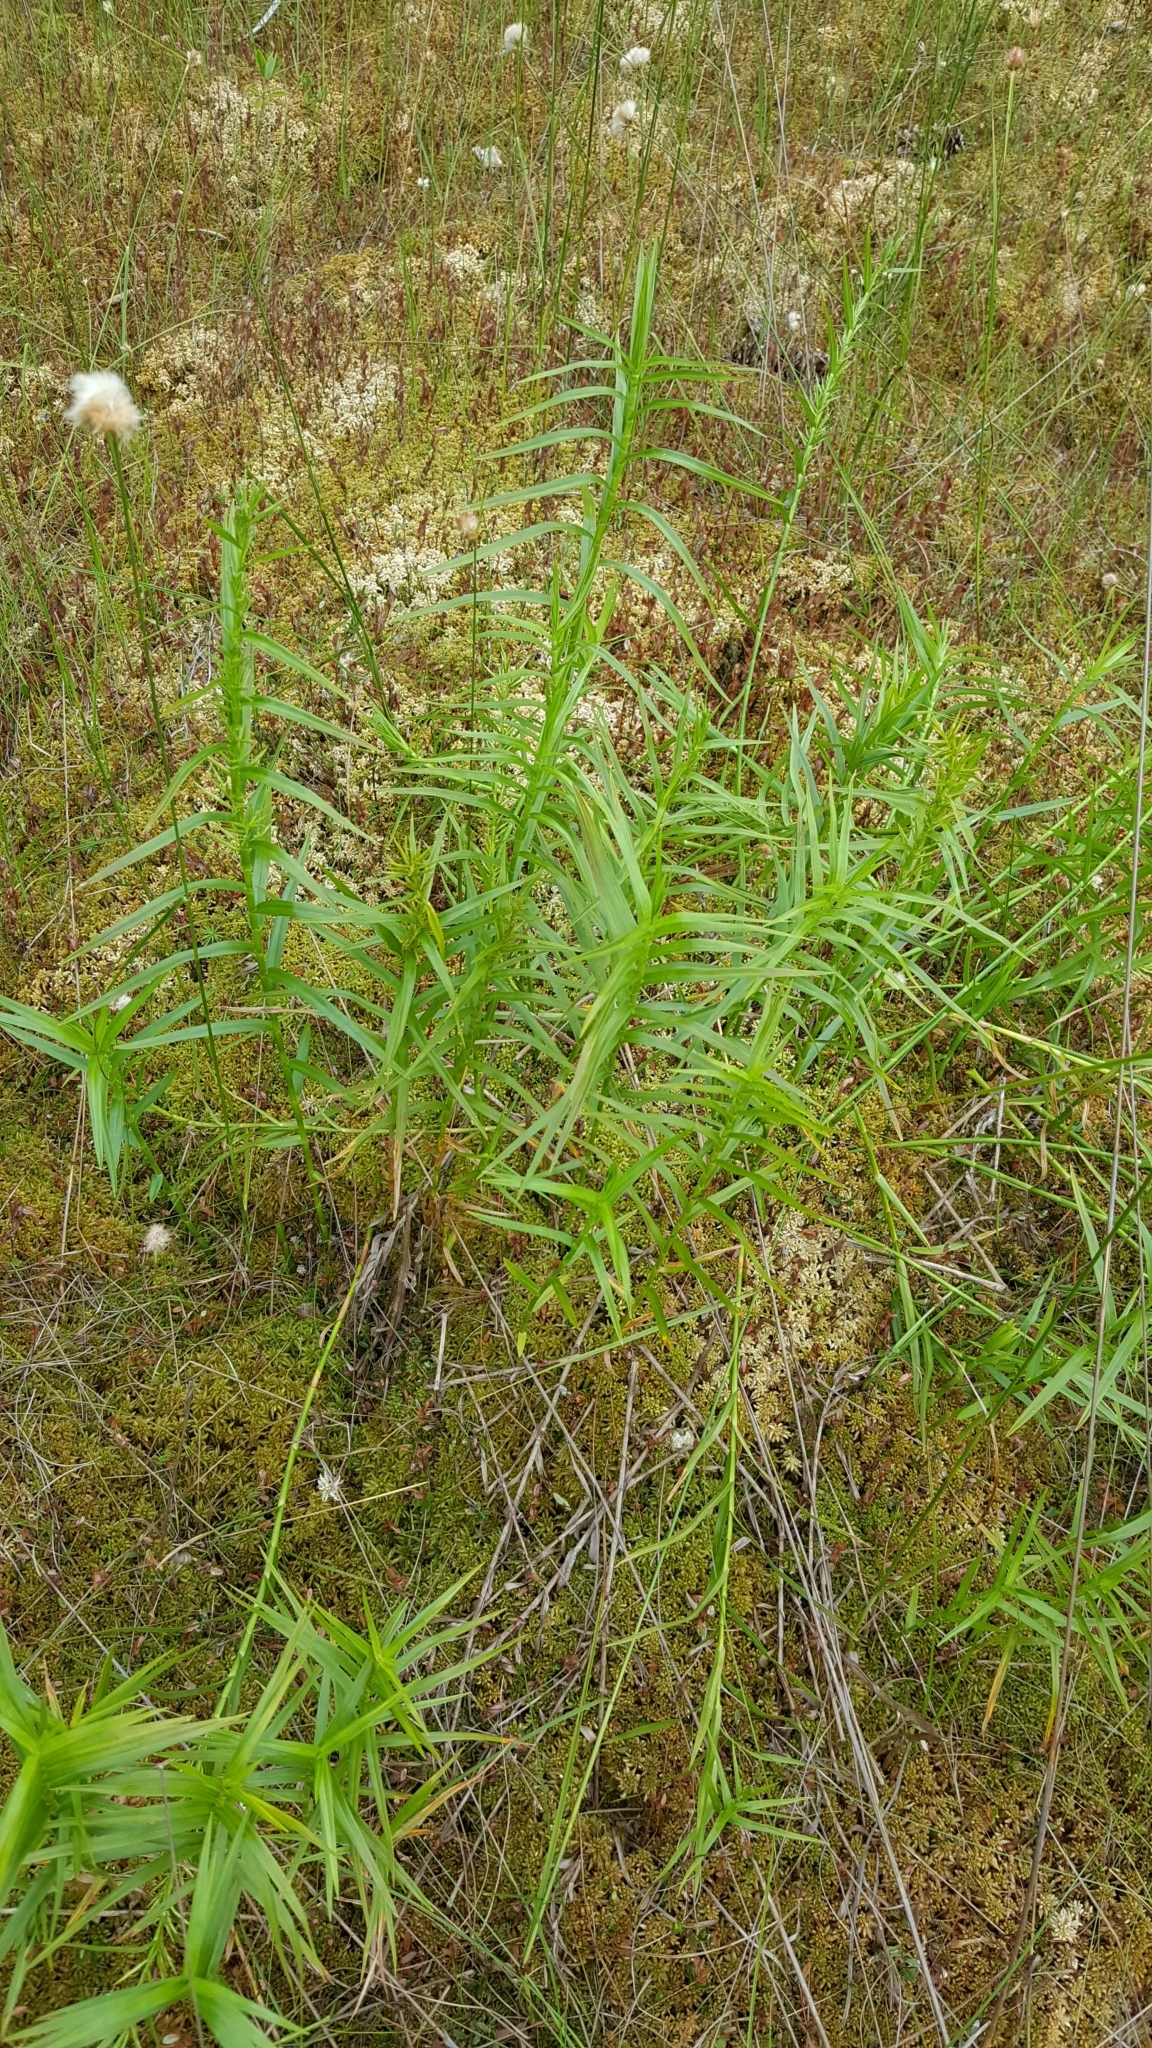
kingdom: Plantae
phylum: Tracheophyta
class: Liliopsida
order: Poales
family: Cyperaceae
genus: Dulichium
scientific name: Dulichium arundinaceum
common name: Three-way sedge
